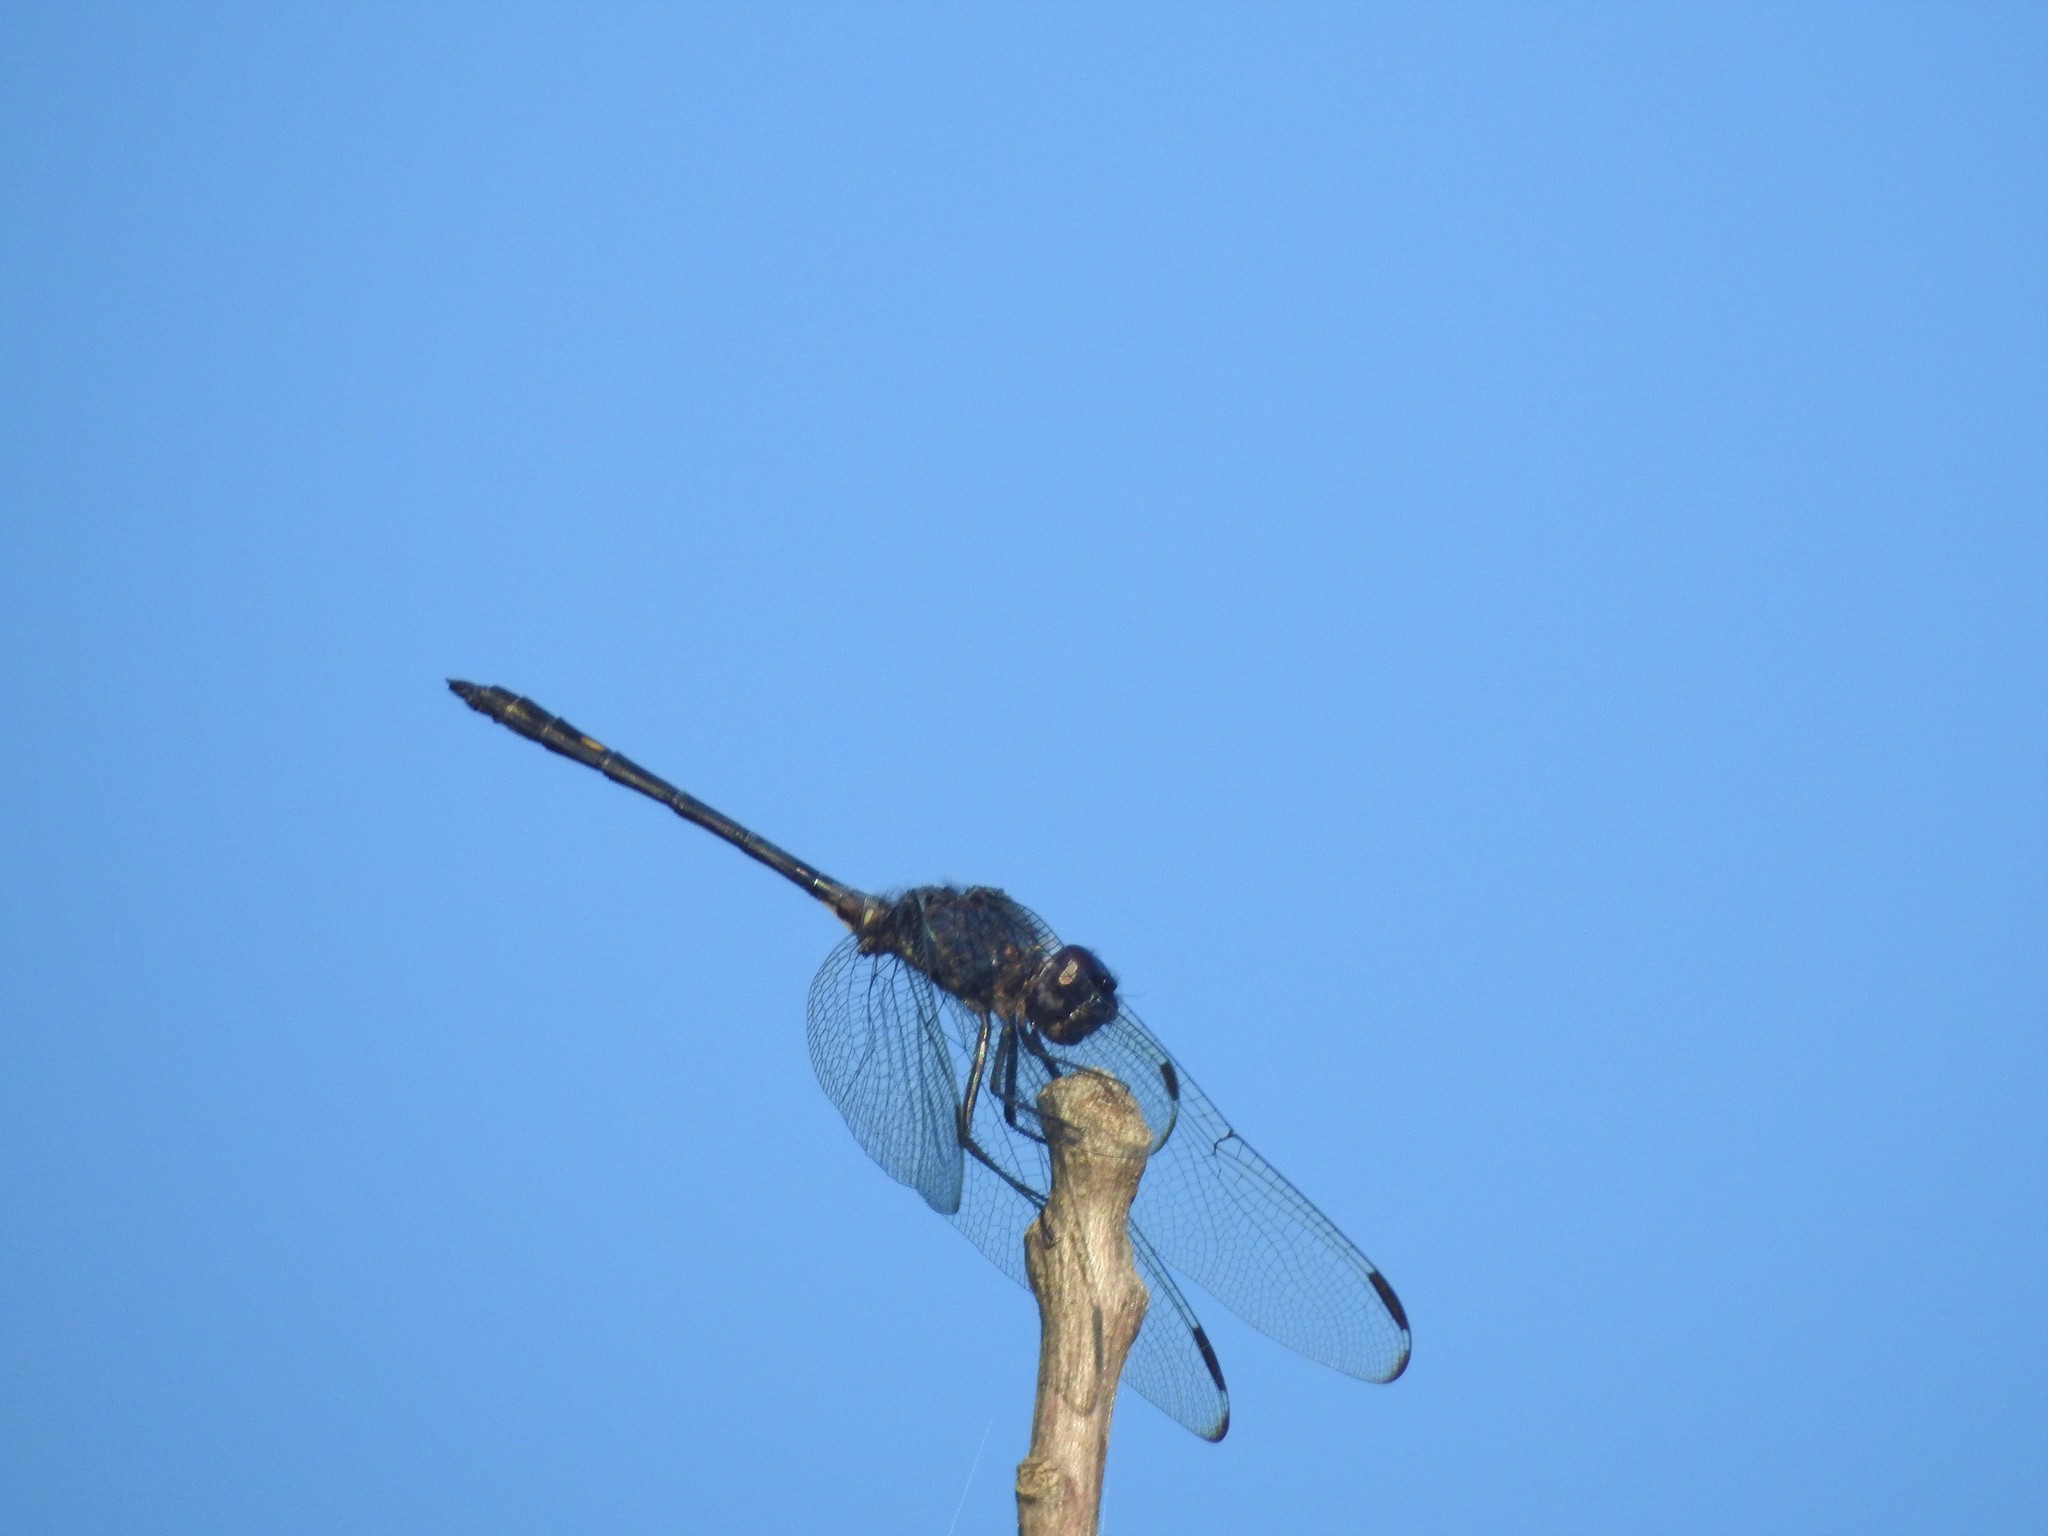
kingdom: Animalia
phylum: Arthropoda
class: Insecta
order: Odonata
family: Libellulidae
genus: Dythemis
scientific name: Dythemis nigrescens
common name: Black setwing
